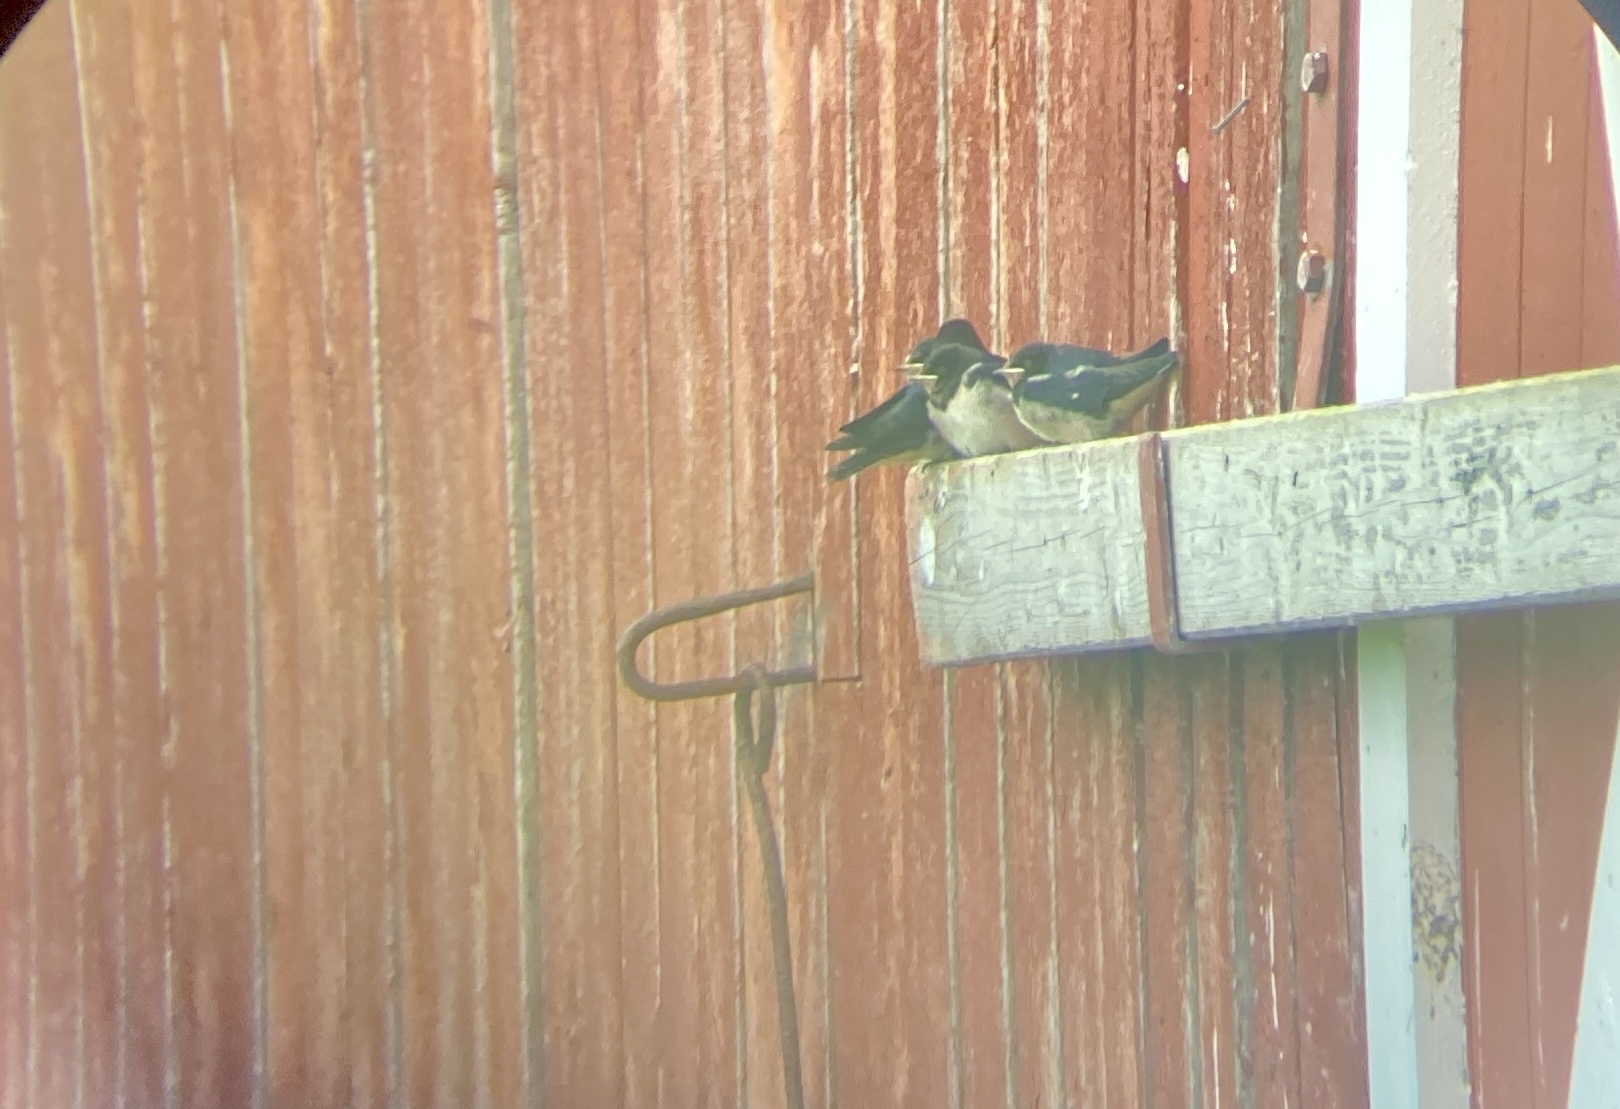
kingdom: Animalia
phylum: Chordata
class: Aves
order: Passeriformes
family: Hirundinidae
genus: Hirundo
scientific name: Hirundo rustica
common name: Barn swallow
